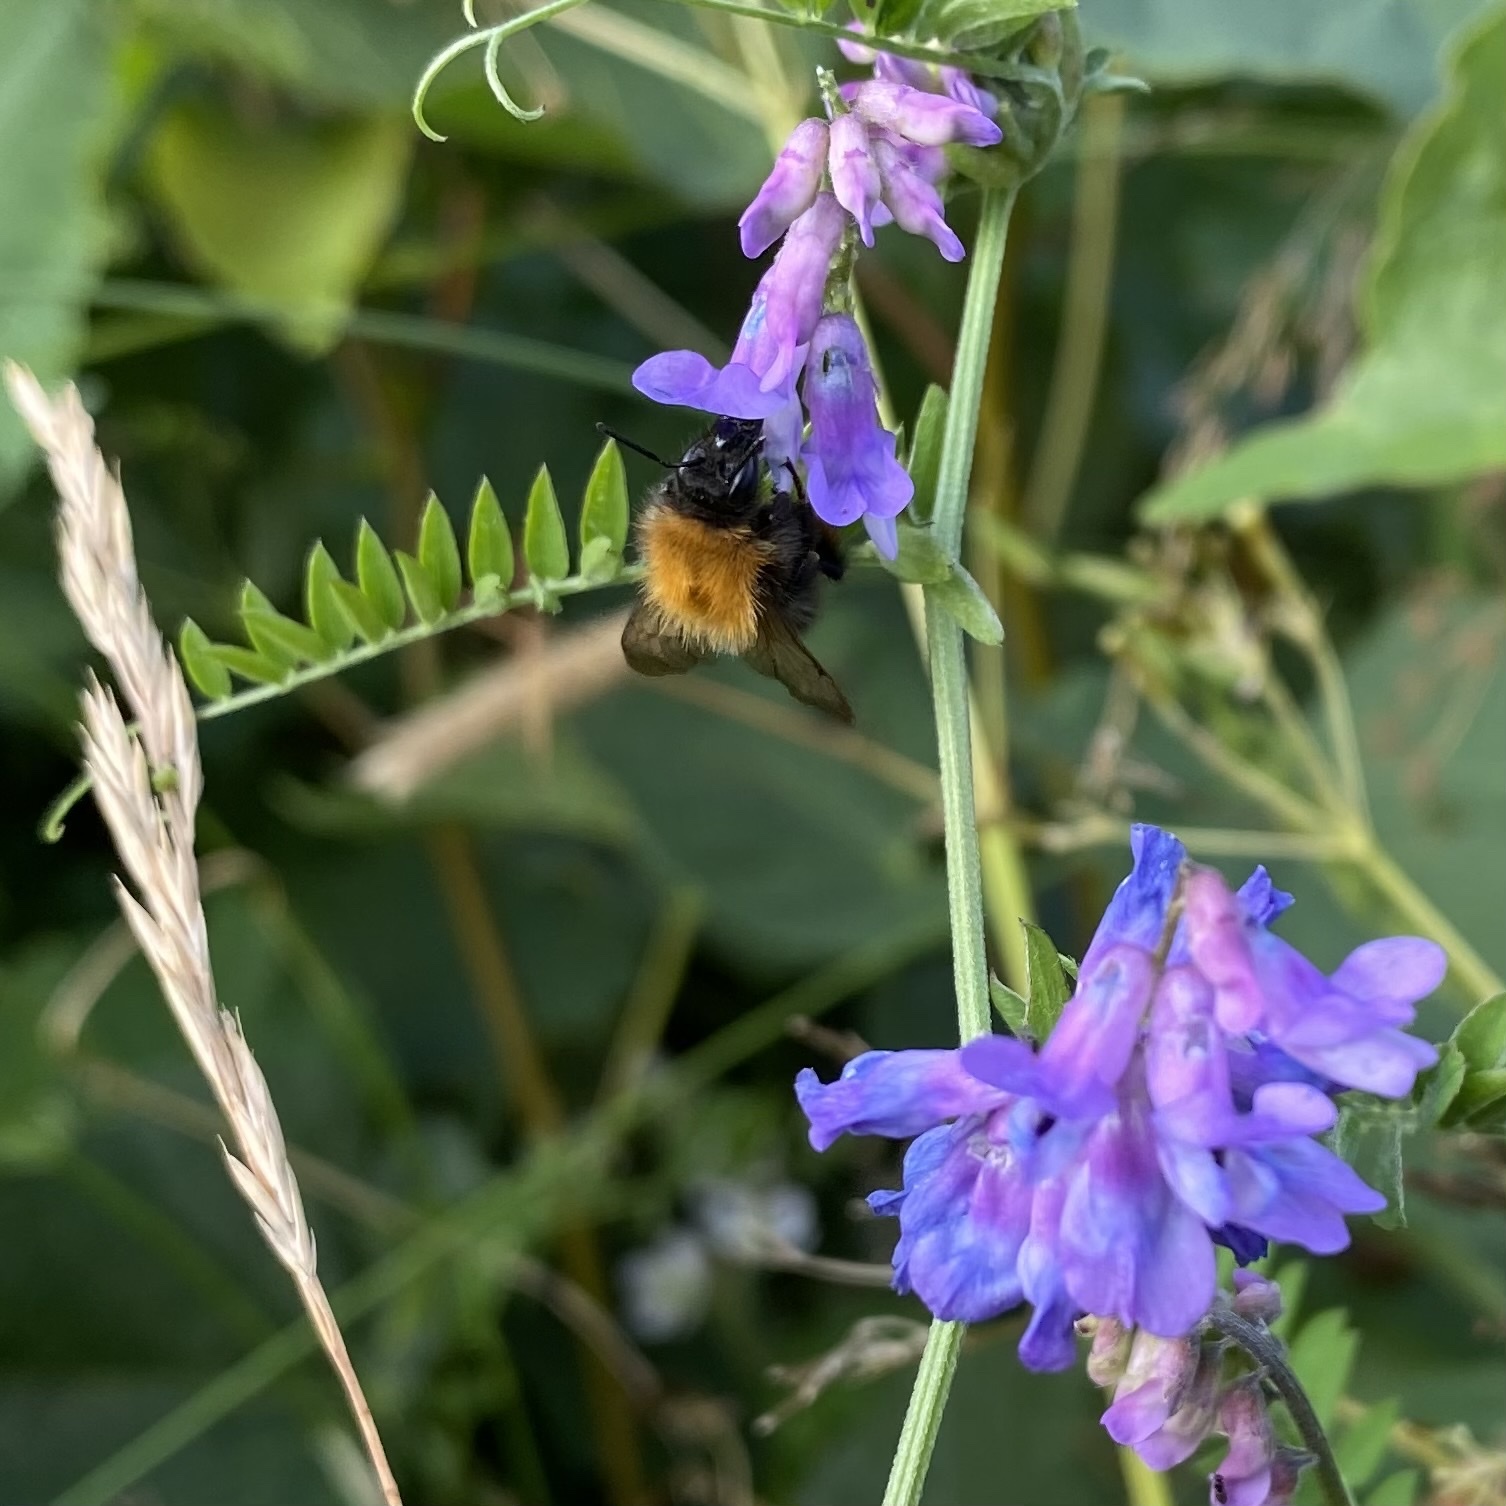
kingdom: Plantae
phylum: Tracheophyta
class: Magnoliopsida
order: Fabales
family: Fabaceae
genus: Vicia
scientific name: Vicia cracca
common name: Bird vetch
